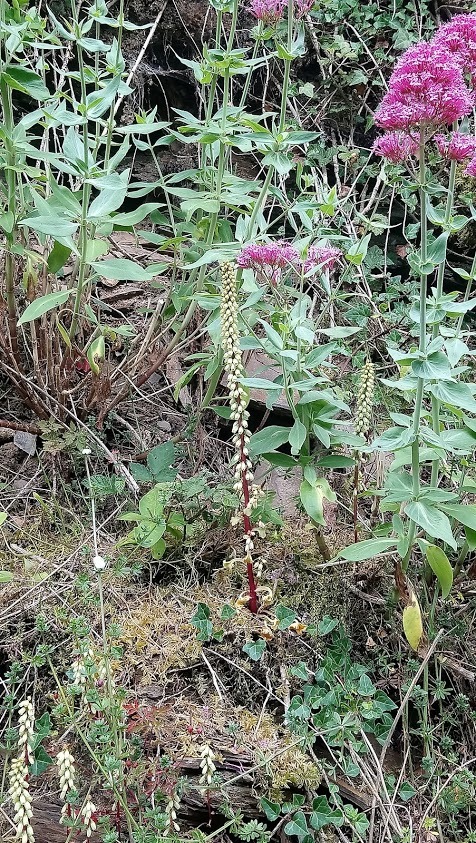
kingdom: Plantae
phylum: Tracheophyta
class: Magnoliopsida
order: Saxifragales
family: Crassulaceae
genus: Umbilicus
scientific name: Umbilicus rupestris
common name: Navelwort
